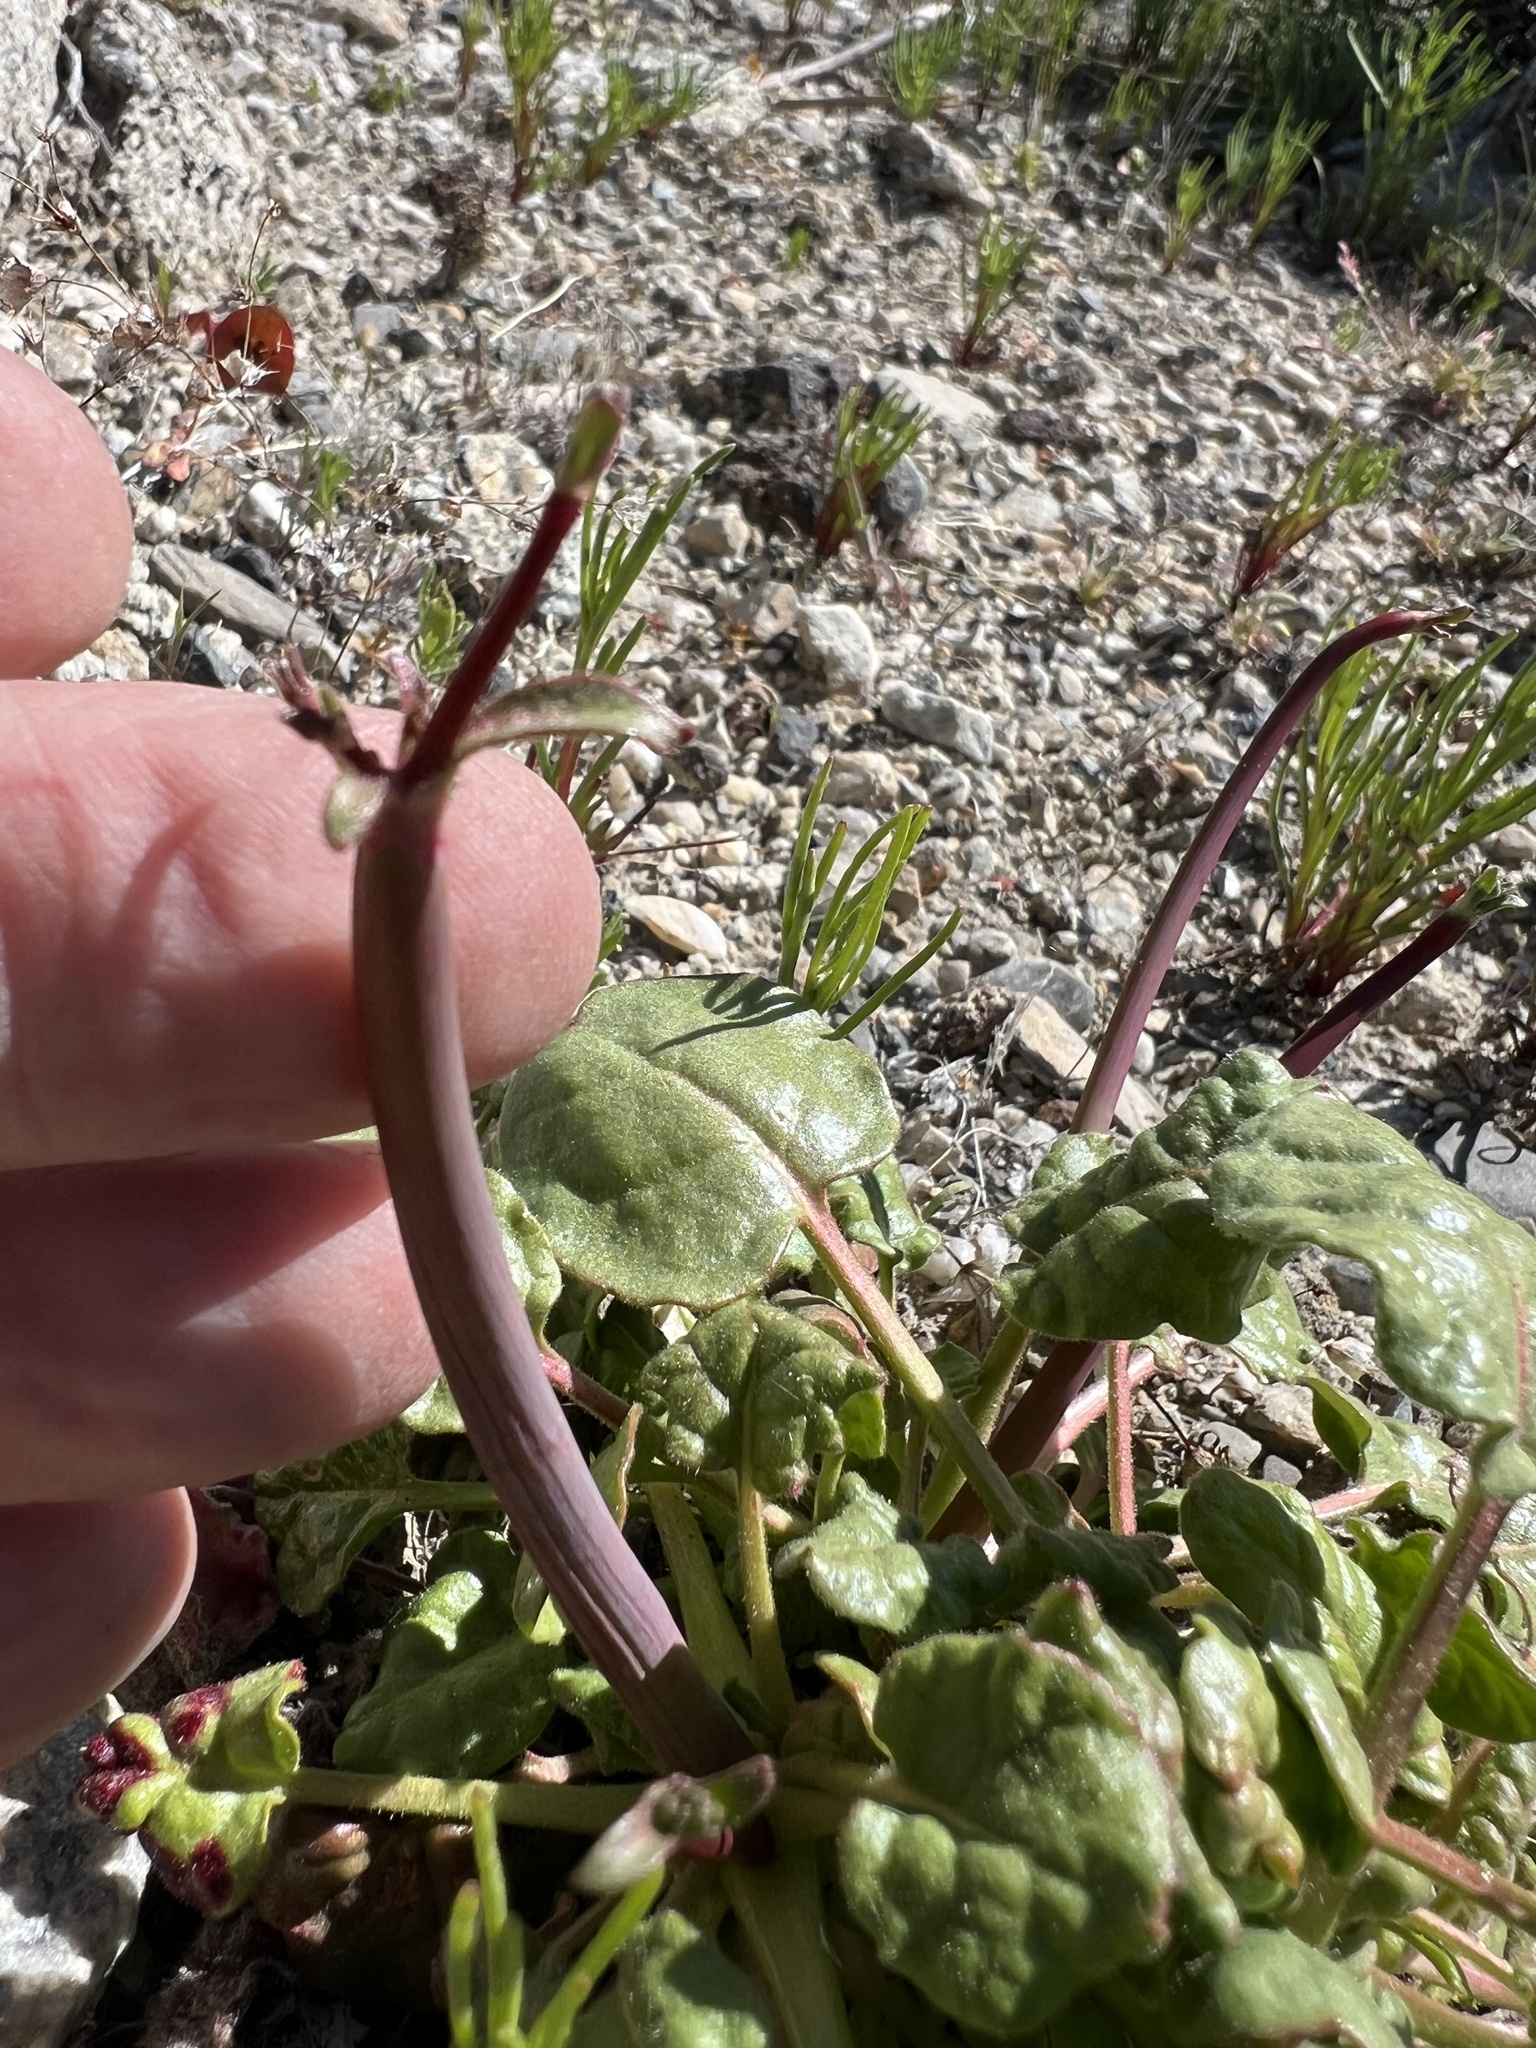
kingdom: Plantae
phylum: Tracheophyta
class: Magnoliopsida
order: Caryophyllales
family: Polygonaceae
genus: Eriogonum
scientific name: Eriogonum inflatum
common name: Desert trumpet
